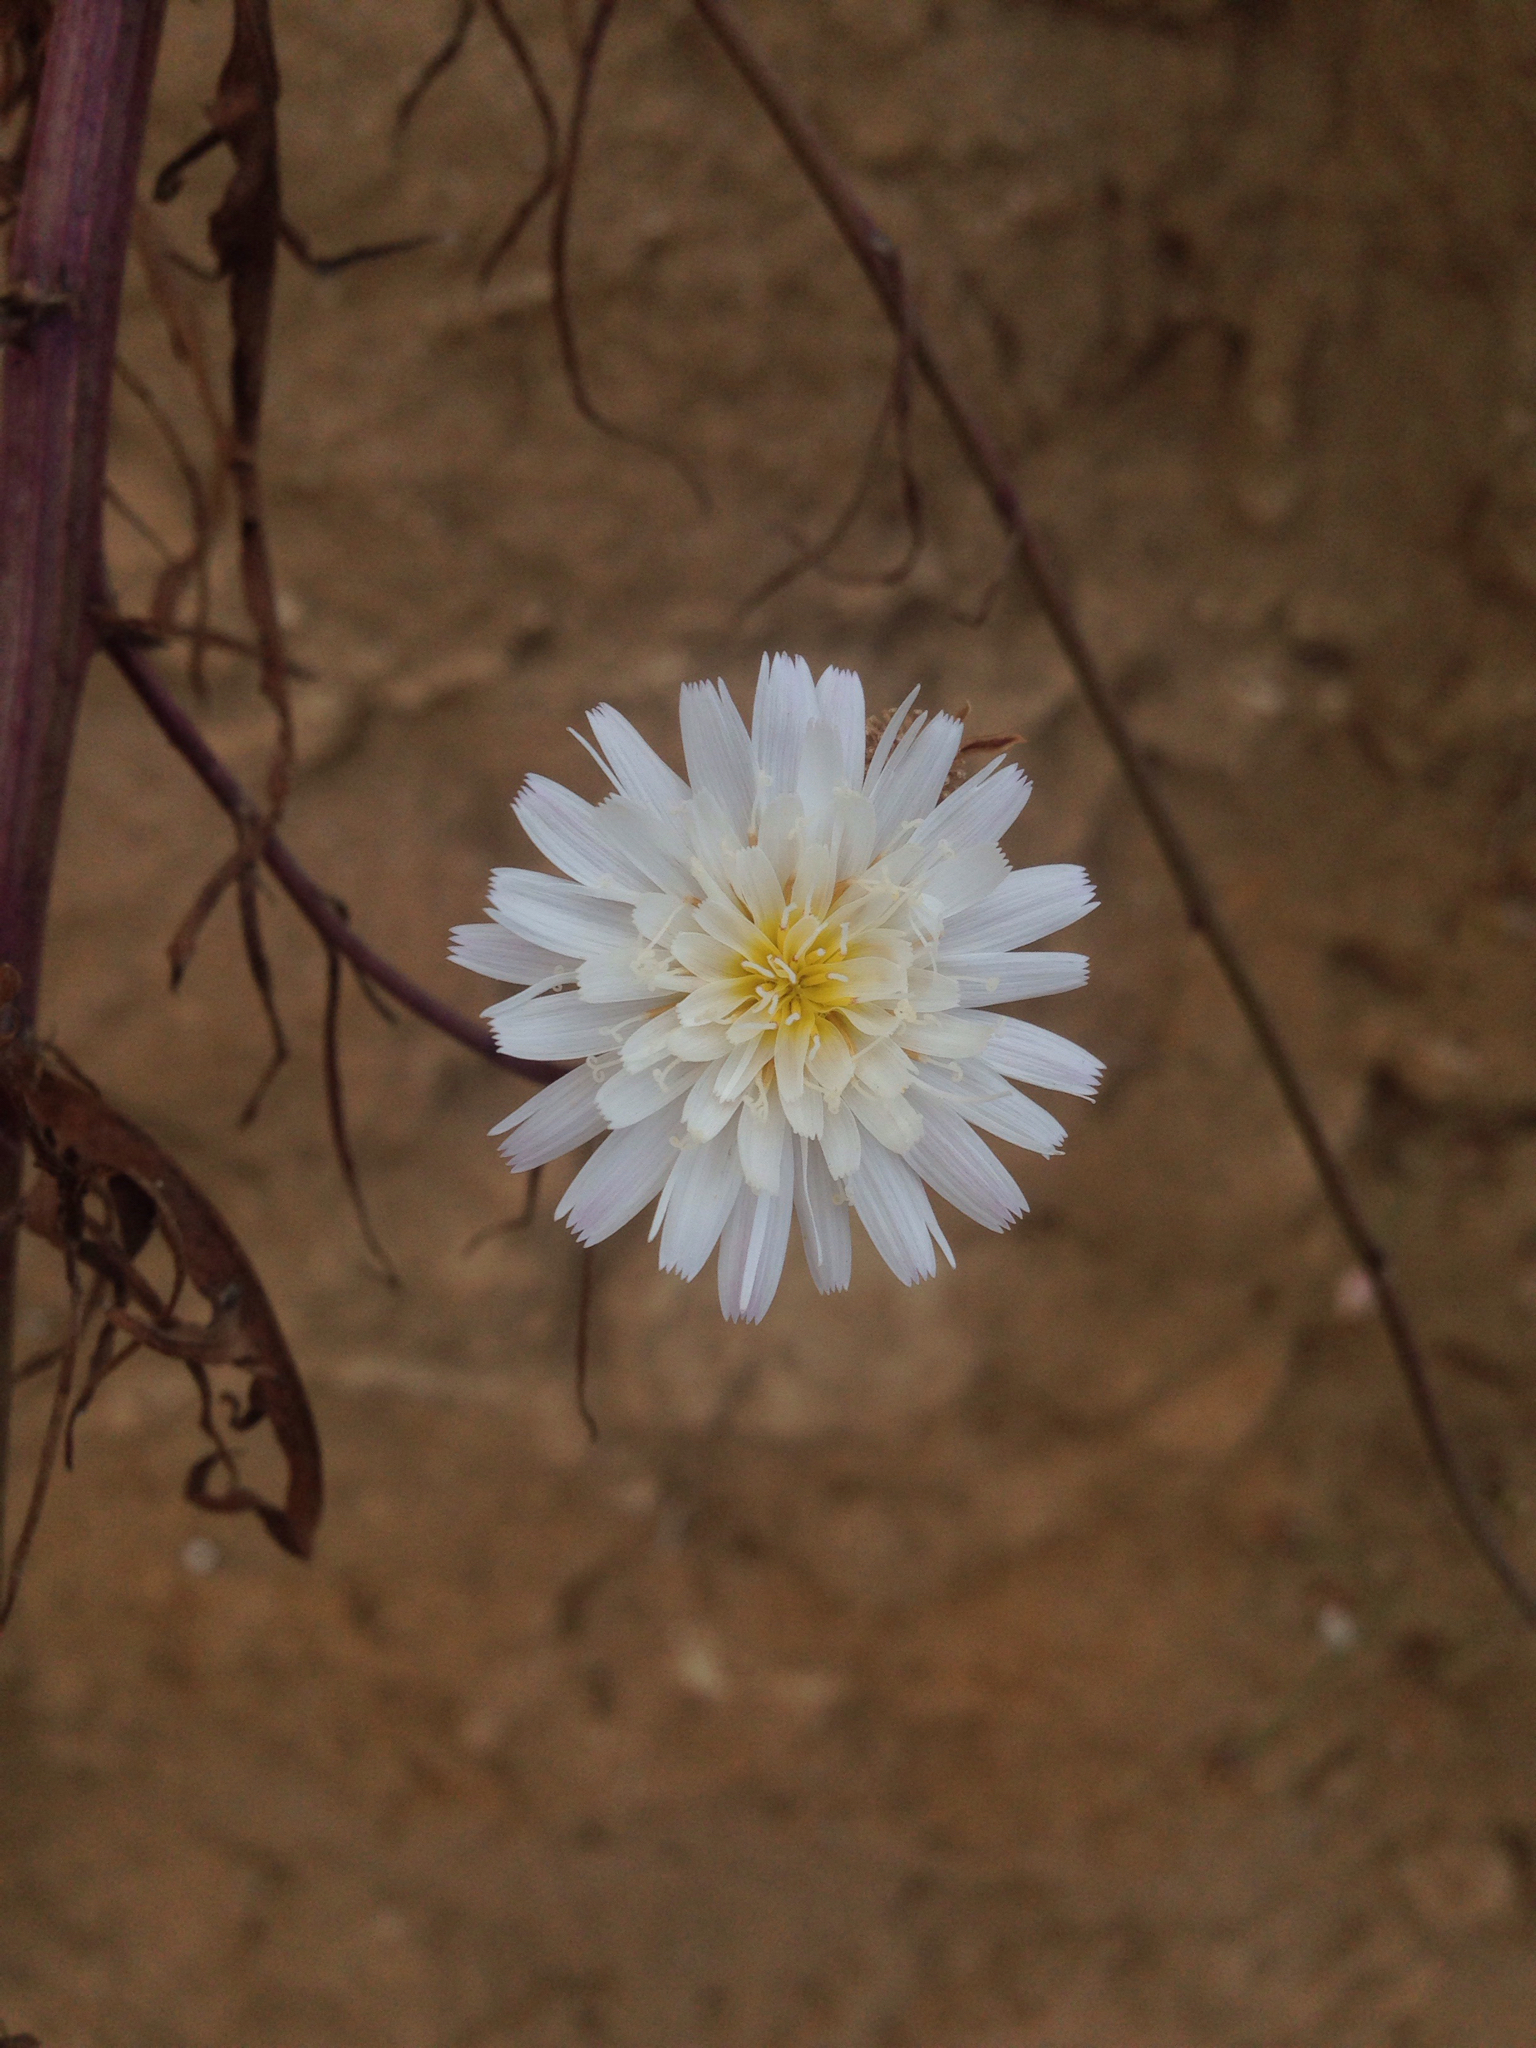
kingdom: Plantae
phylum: Tracheophyta
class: Magnoliopsida
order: Asterales
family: Asteraceae
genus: Malacothrix
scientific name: Malacothrix saxatilis
